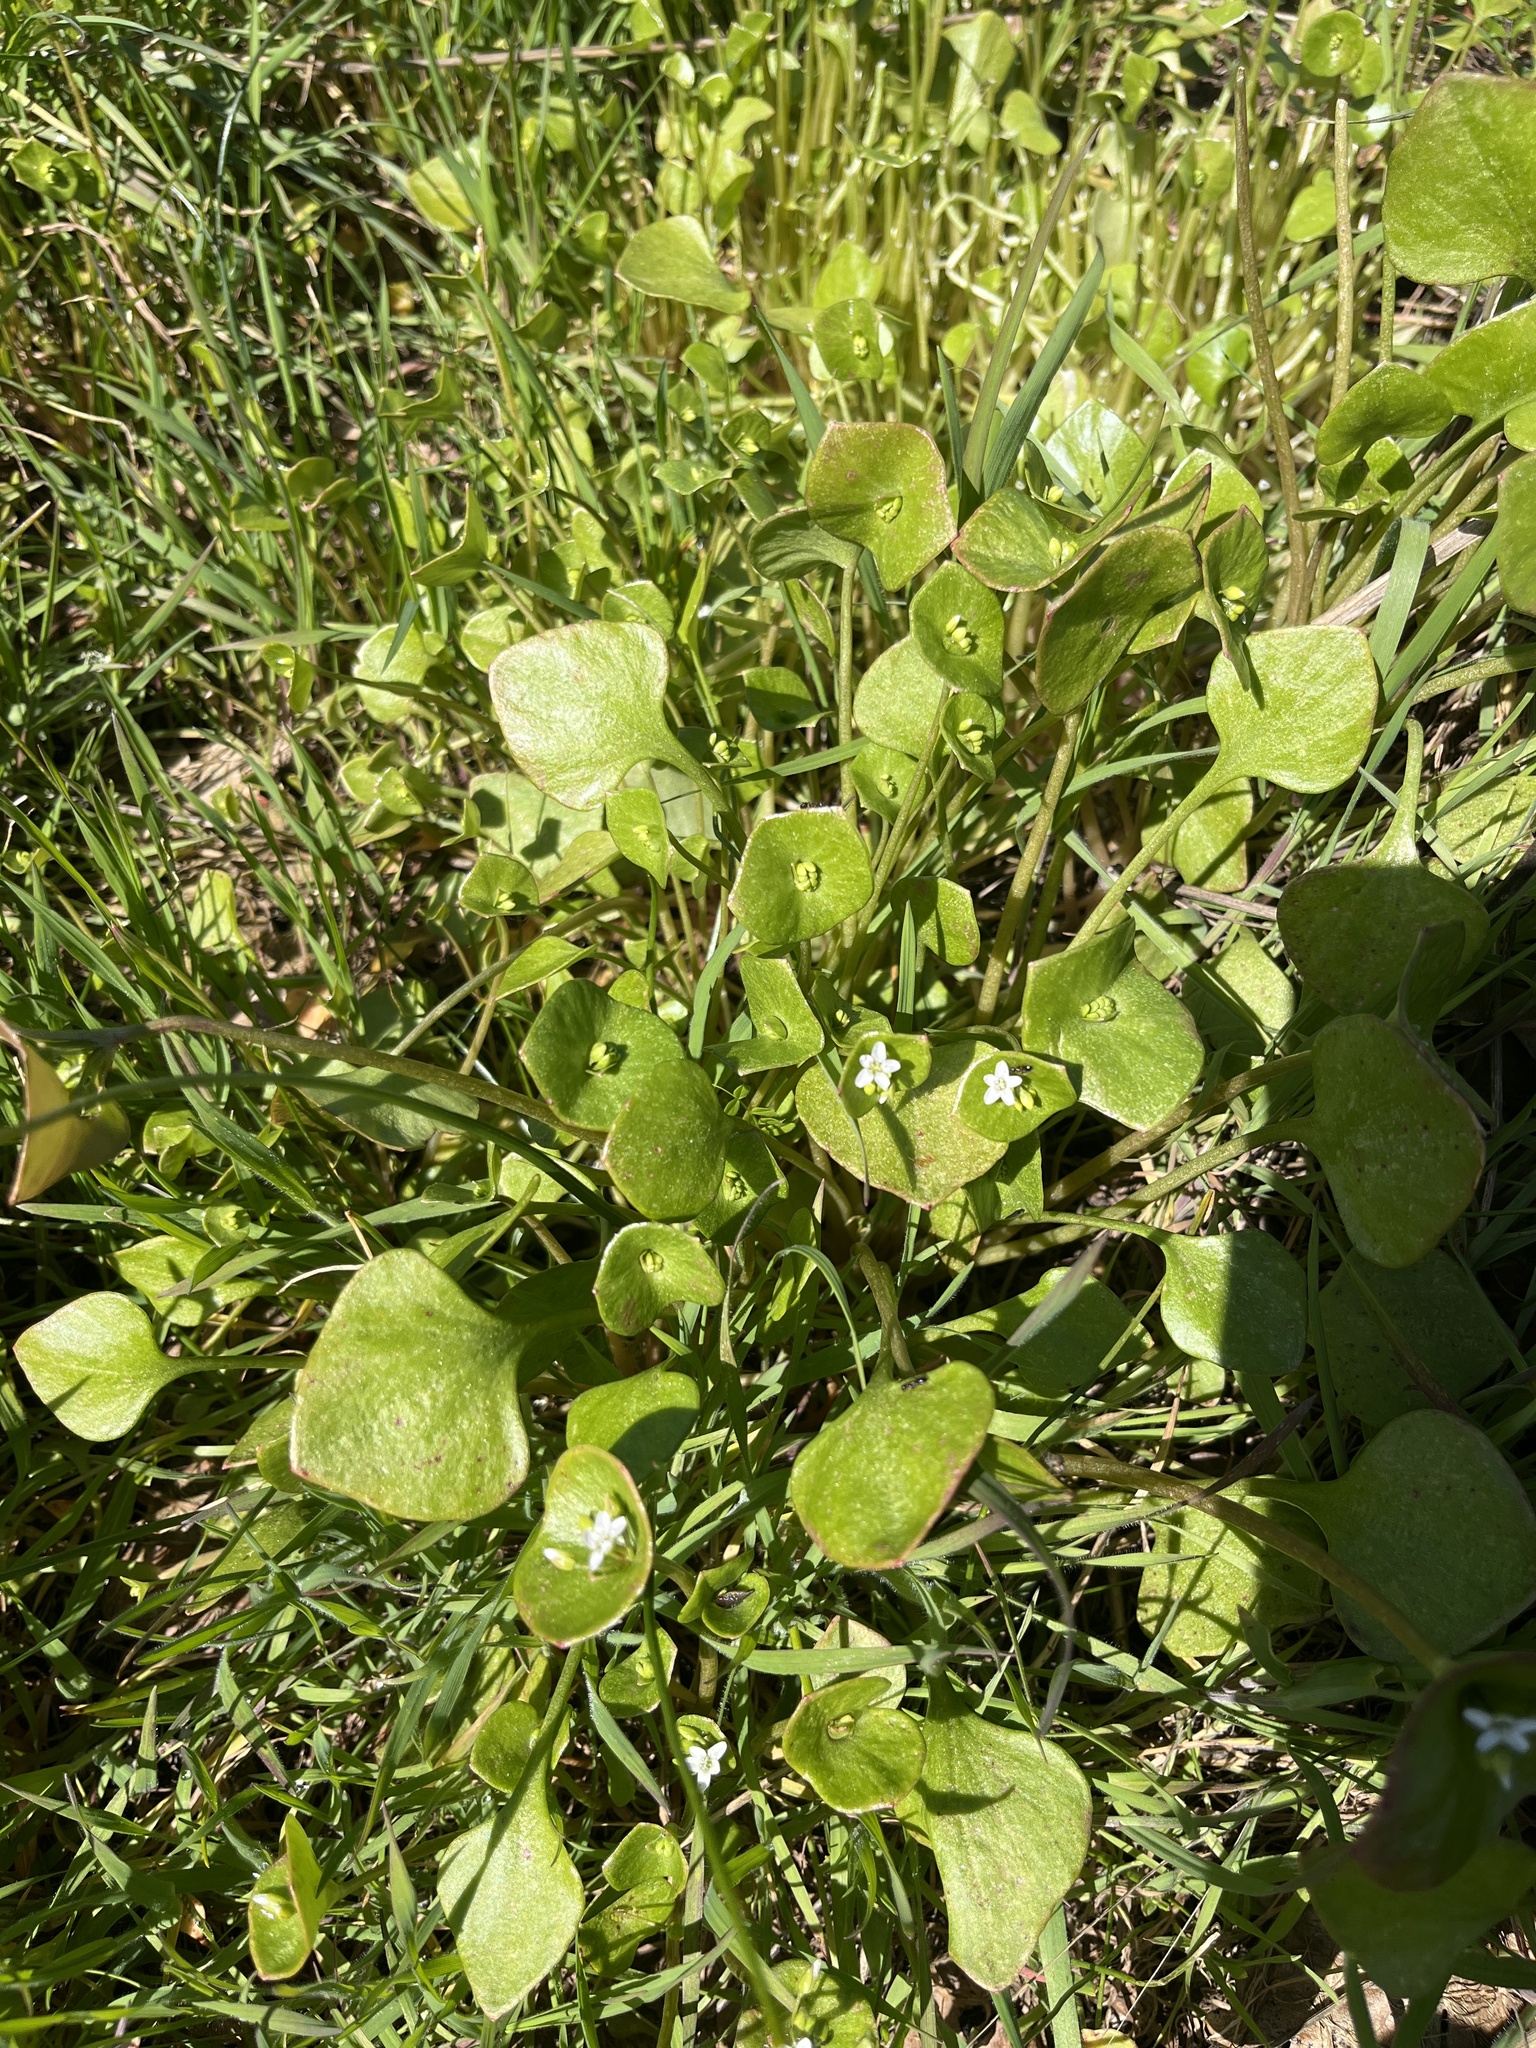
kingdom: Plantae
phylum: Tracheophyta
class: Magnoliopsida
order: Caryophyllales
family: Montiaceae
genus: Claytonia
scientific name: Claytonia perfoliata
